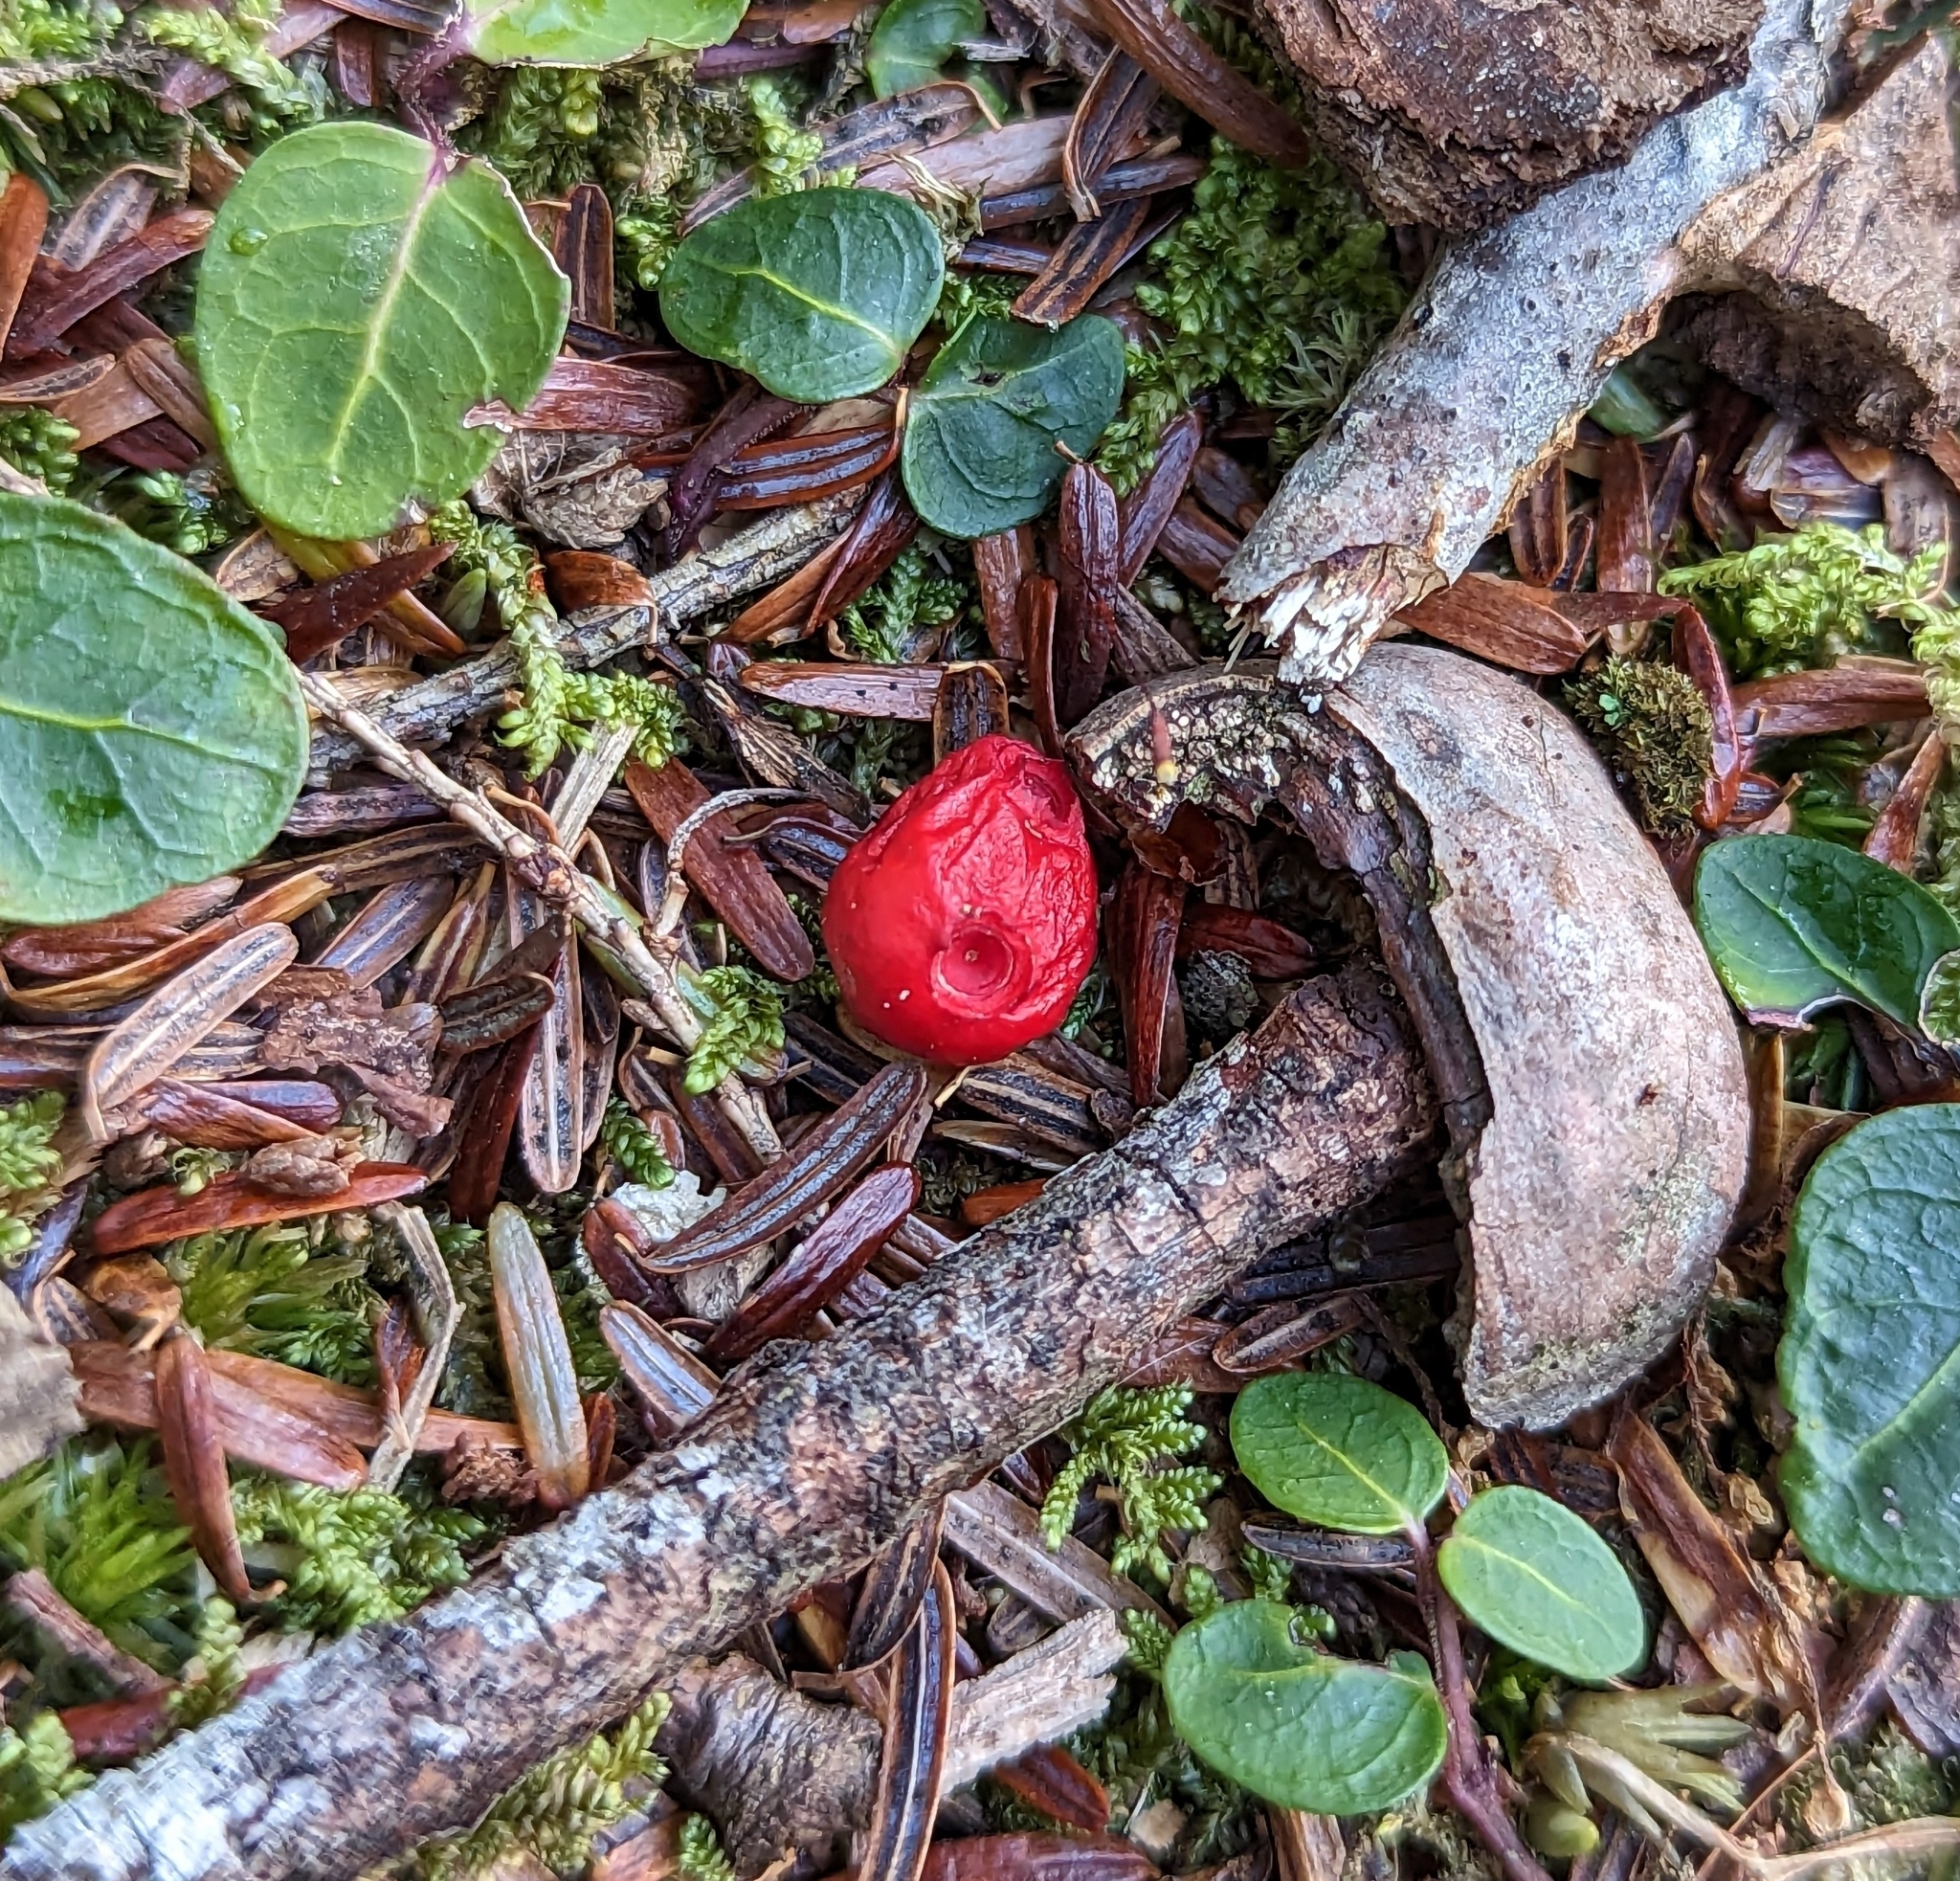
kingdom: Plantae
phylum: Tracheophyta
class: Magnoliopsida
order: Gentianales
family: Rubiaceae
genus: Mitchella
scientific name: Mitchella repens
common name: Partridge-berry
